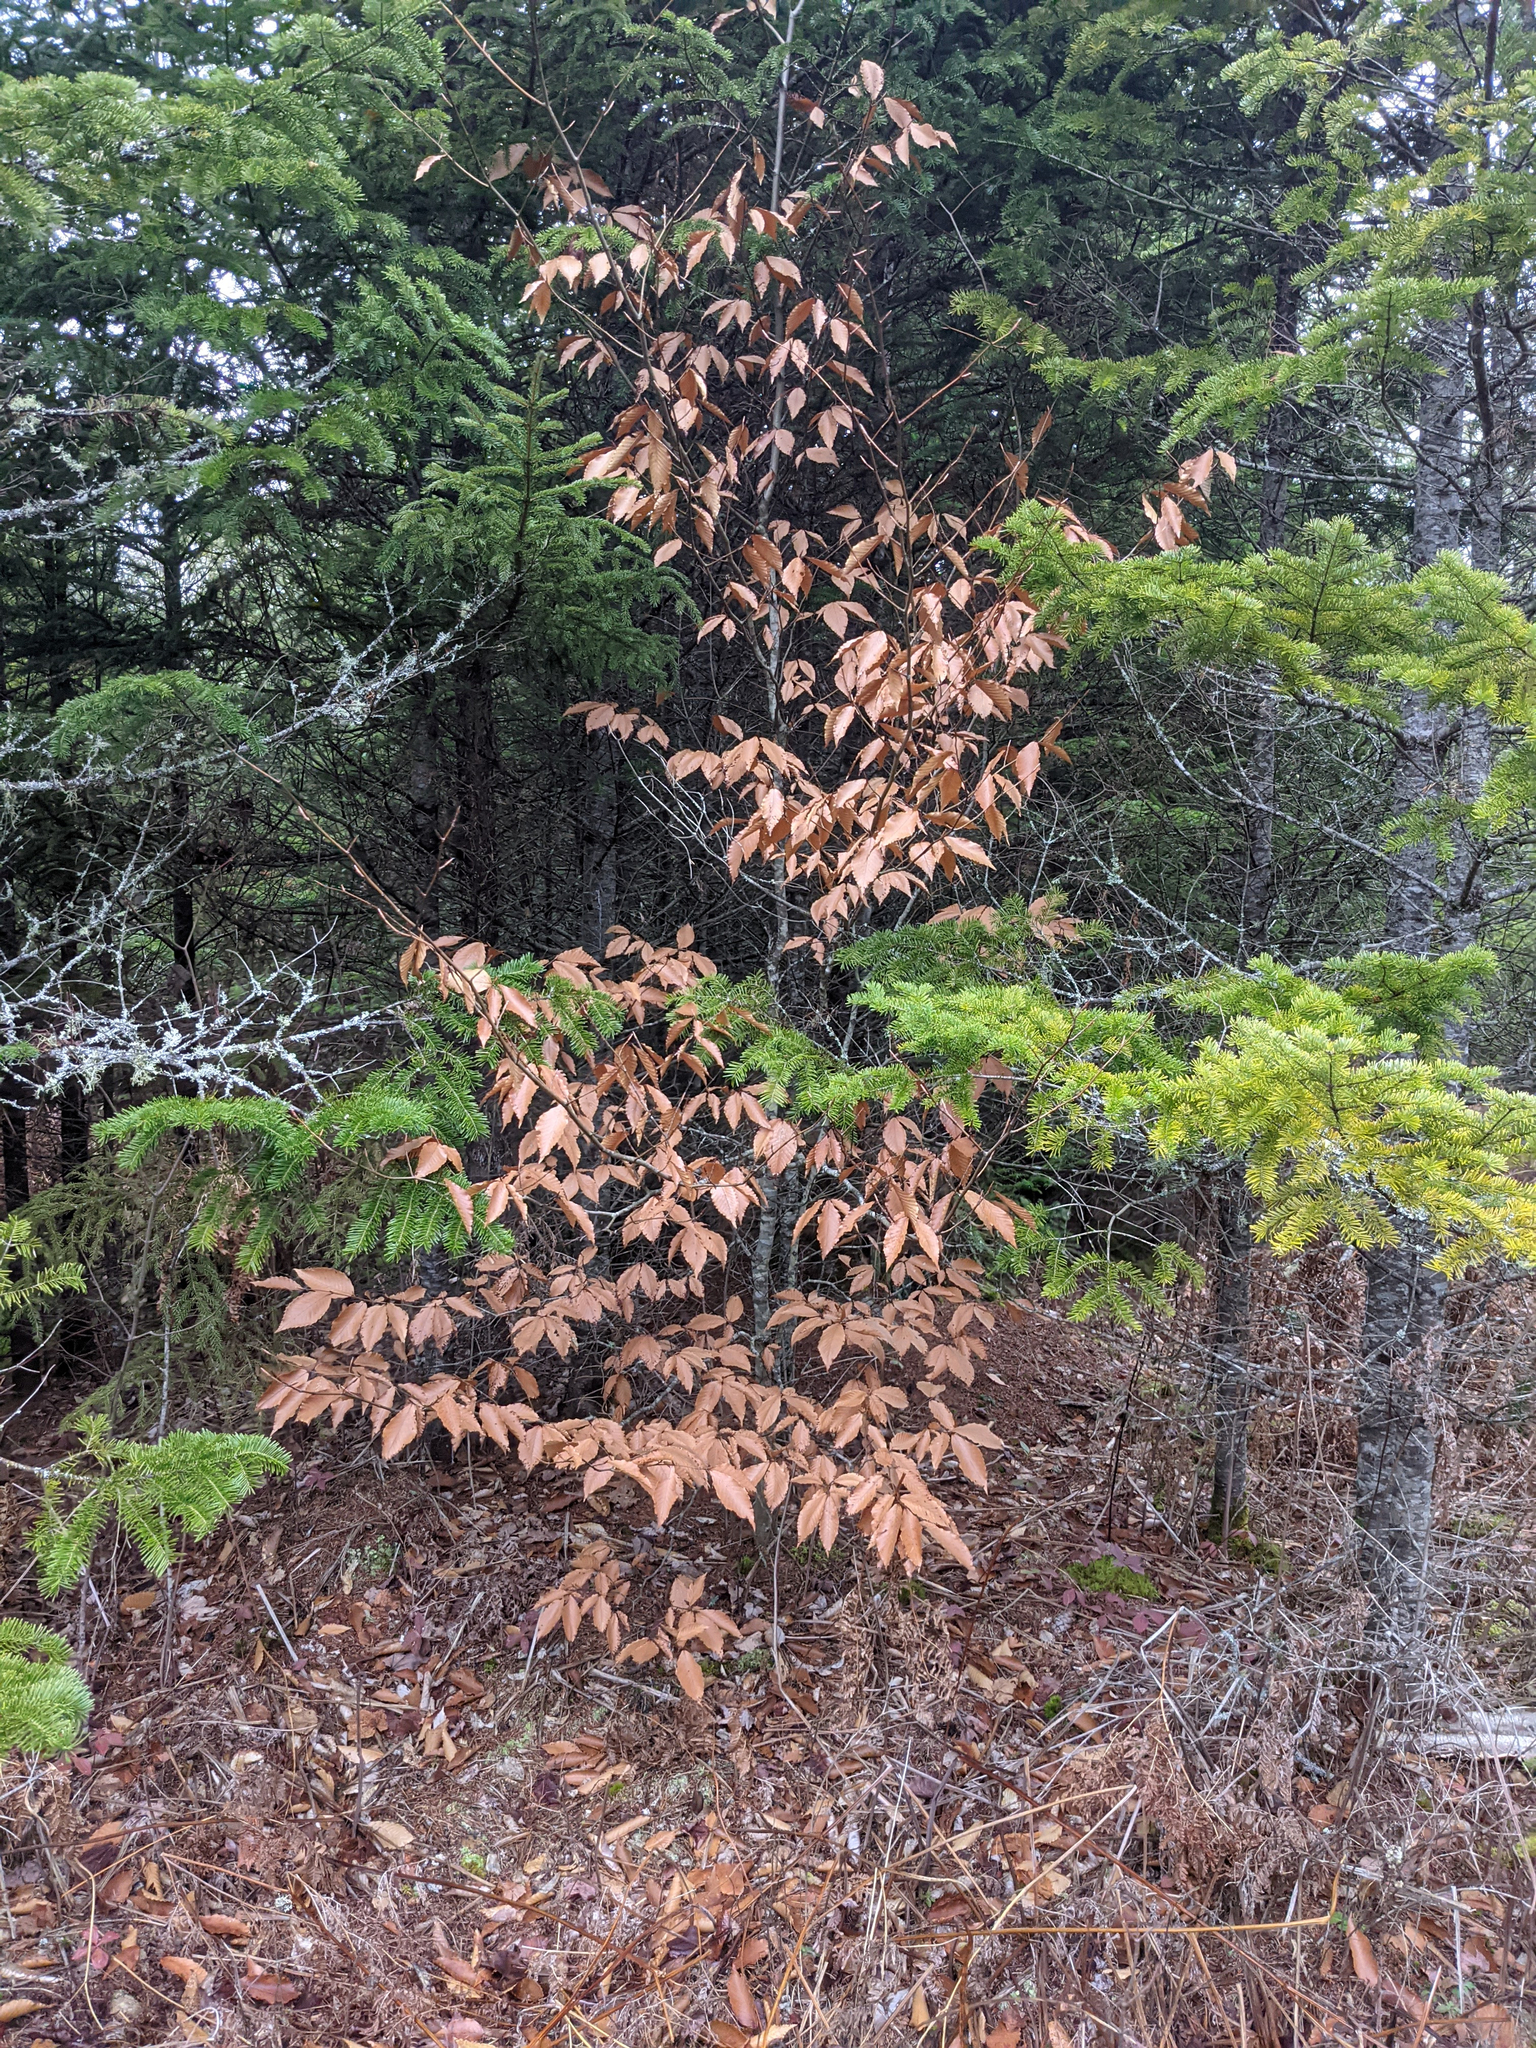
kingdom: Plantae
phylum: Tracheophyta
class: Magnoliopsida
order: Fagales
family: Fagaceae
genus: Fagus
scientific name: Fagus grandifolia
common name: American beech
